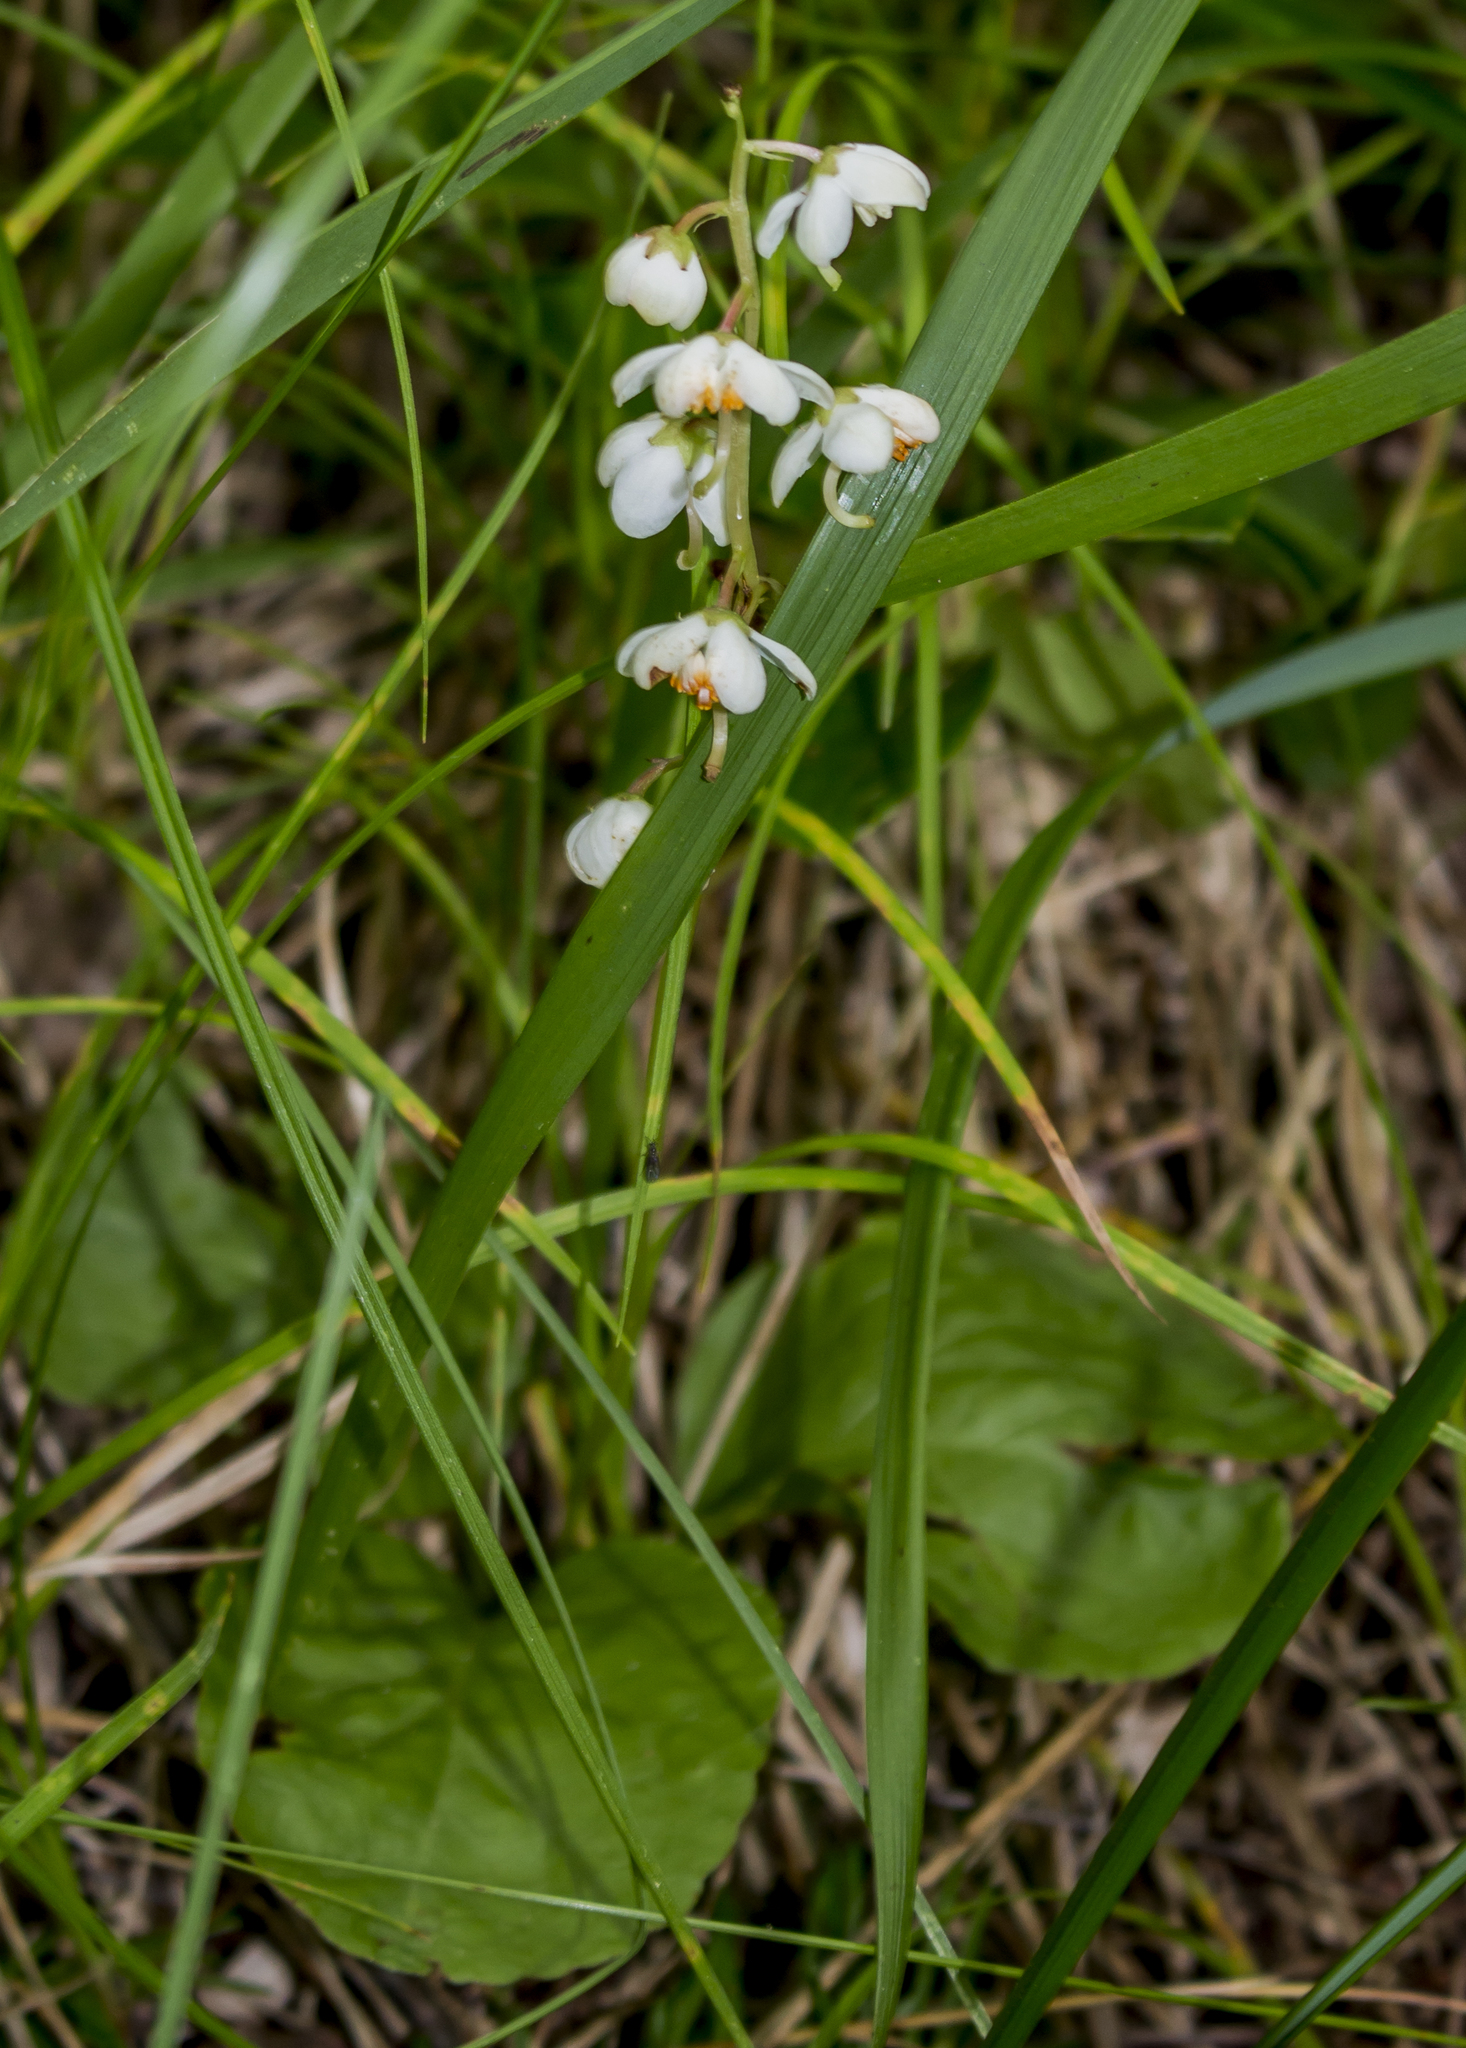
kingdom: Plantae
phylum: Tracheophyta
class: Magnoliopsida
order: Ericales
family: Ericaceae
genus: Pyrola
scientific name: Pyrola elliptica
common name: Shinleaf
